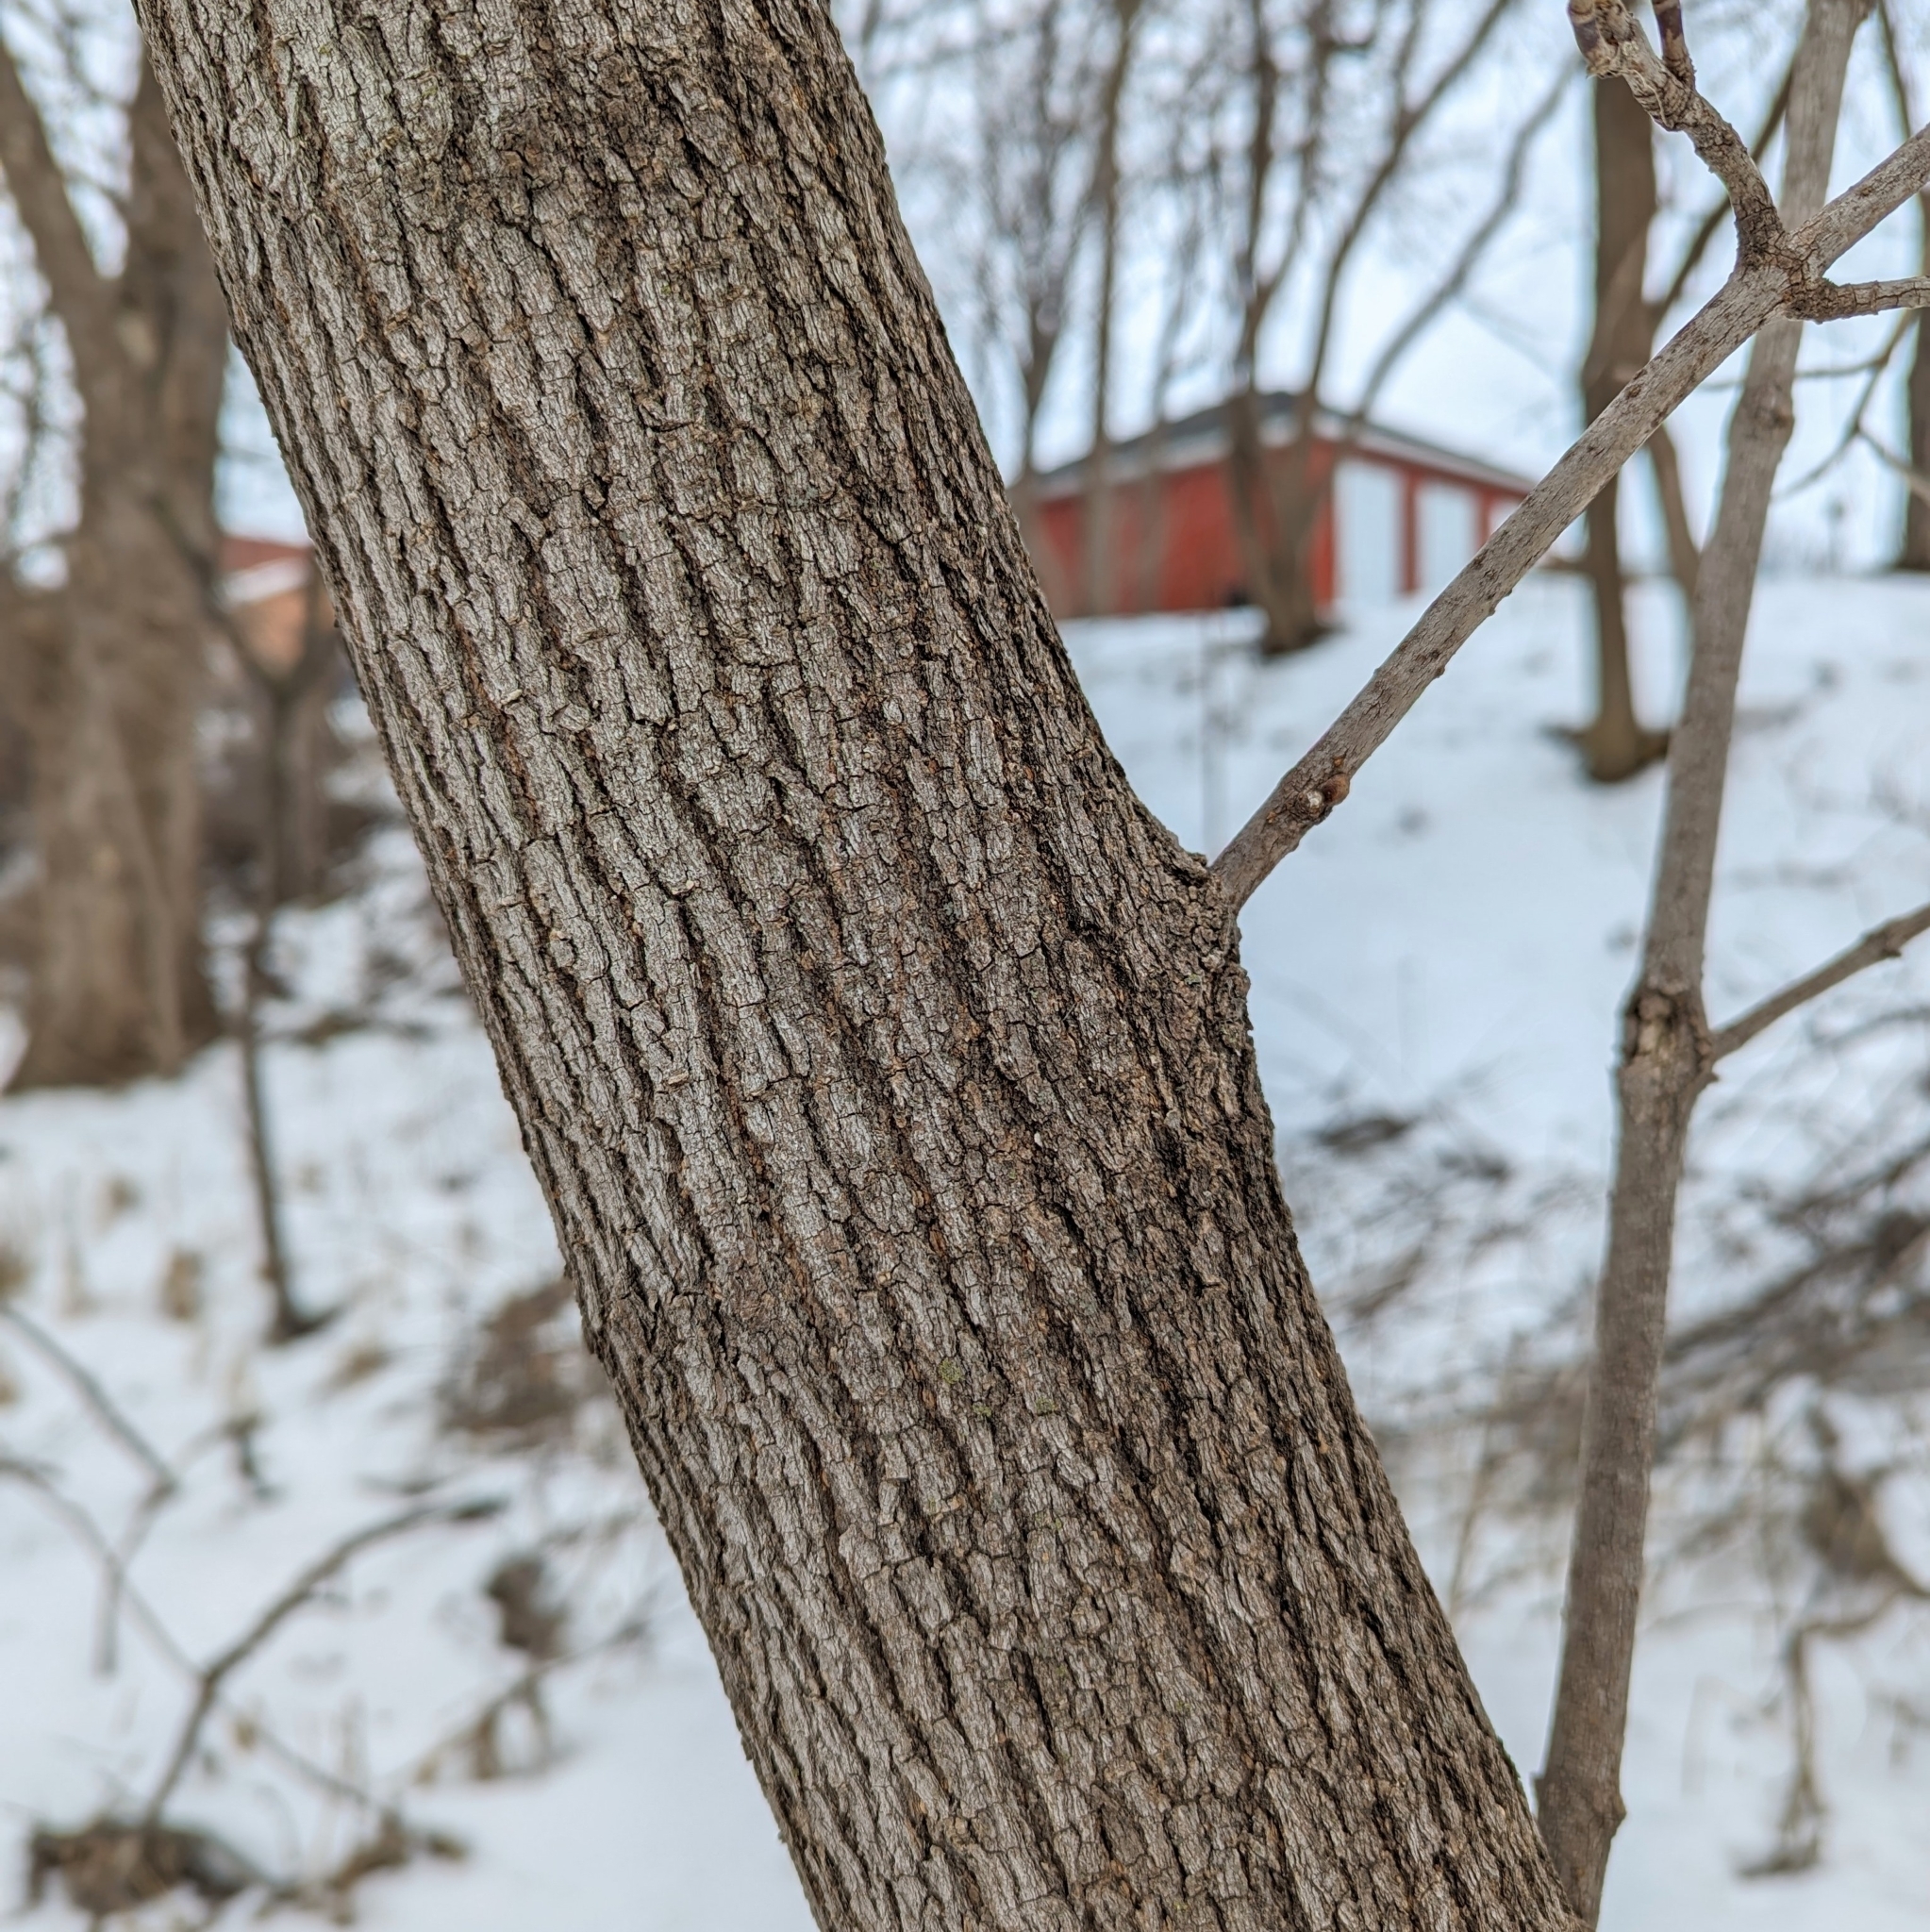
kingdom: Plantae
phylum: Tracheophyta
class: Magnoliopsida
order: Sapindales
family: Sapindaceae
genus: Acer
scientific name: Acer negundo
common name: Ashleaf maple
